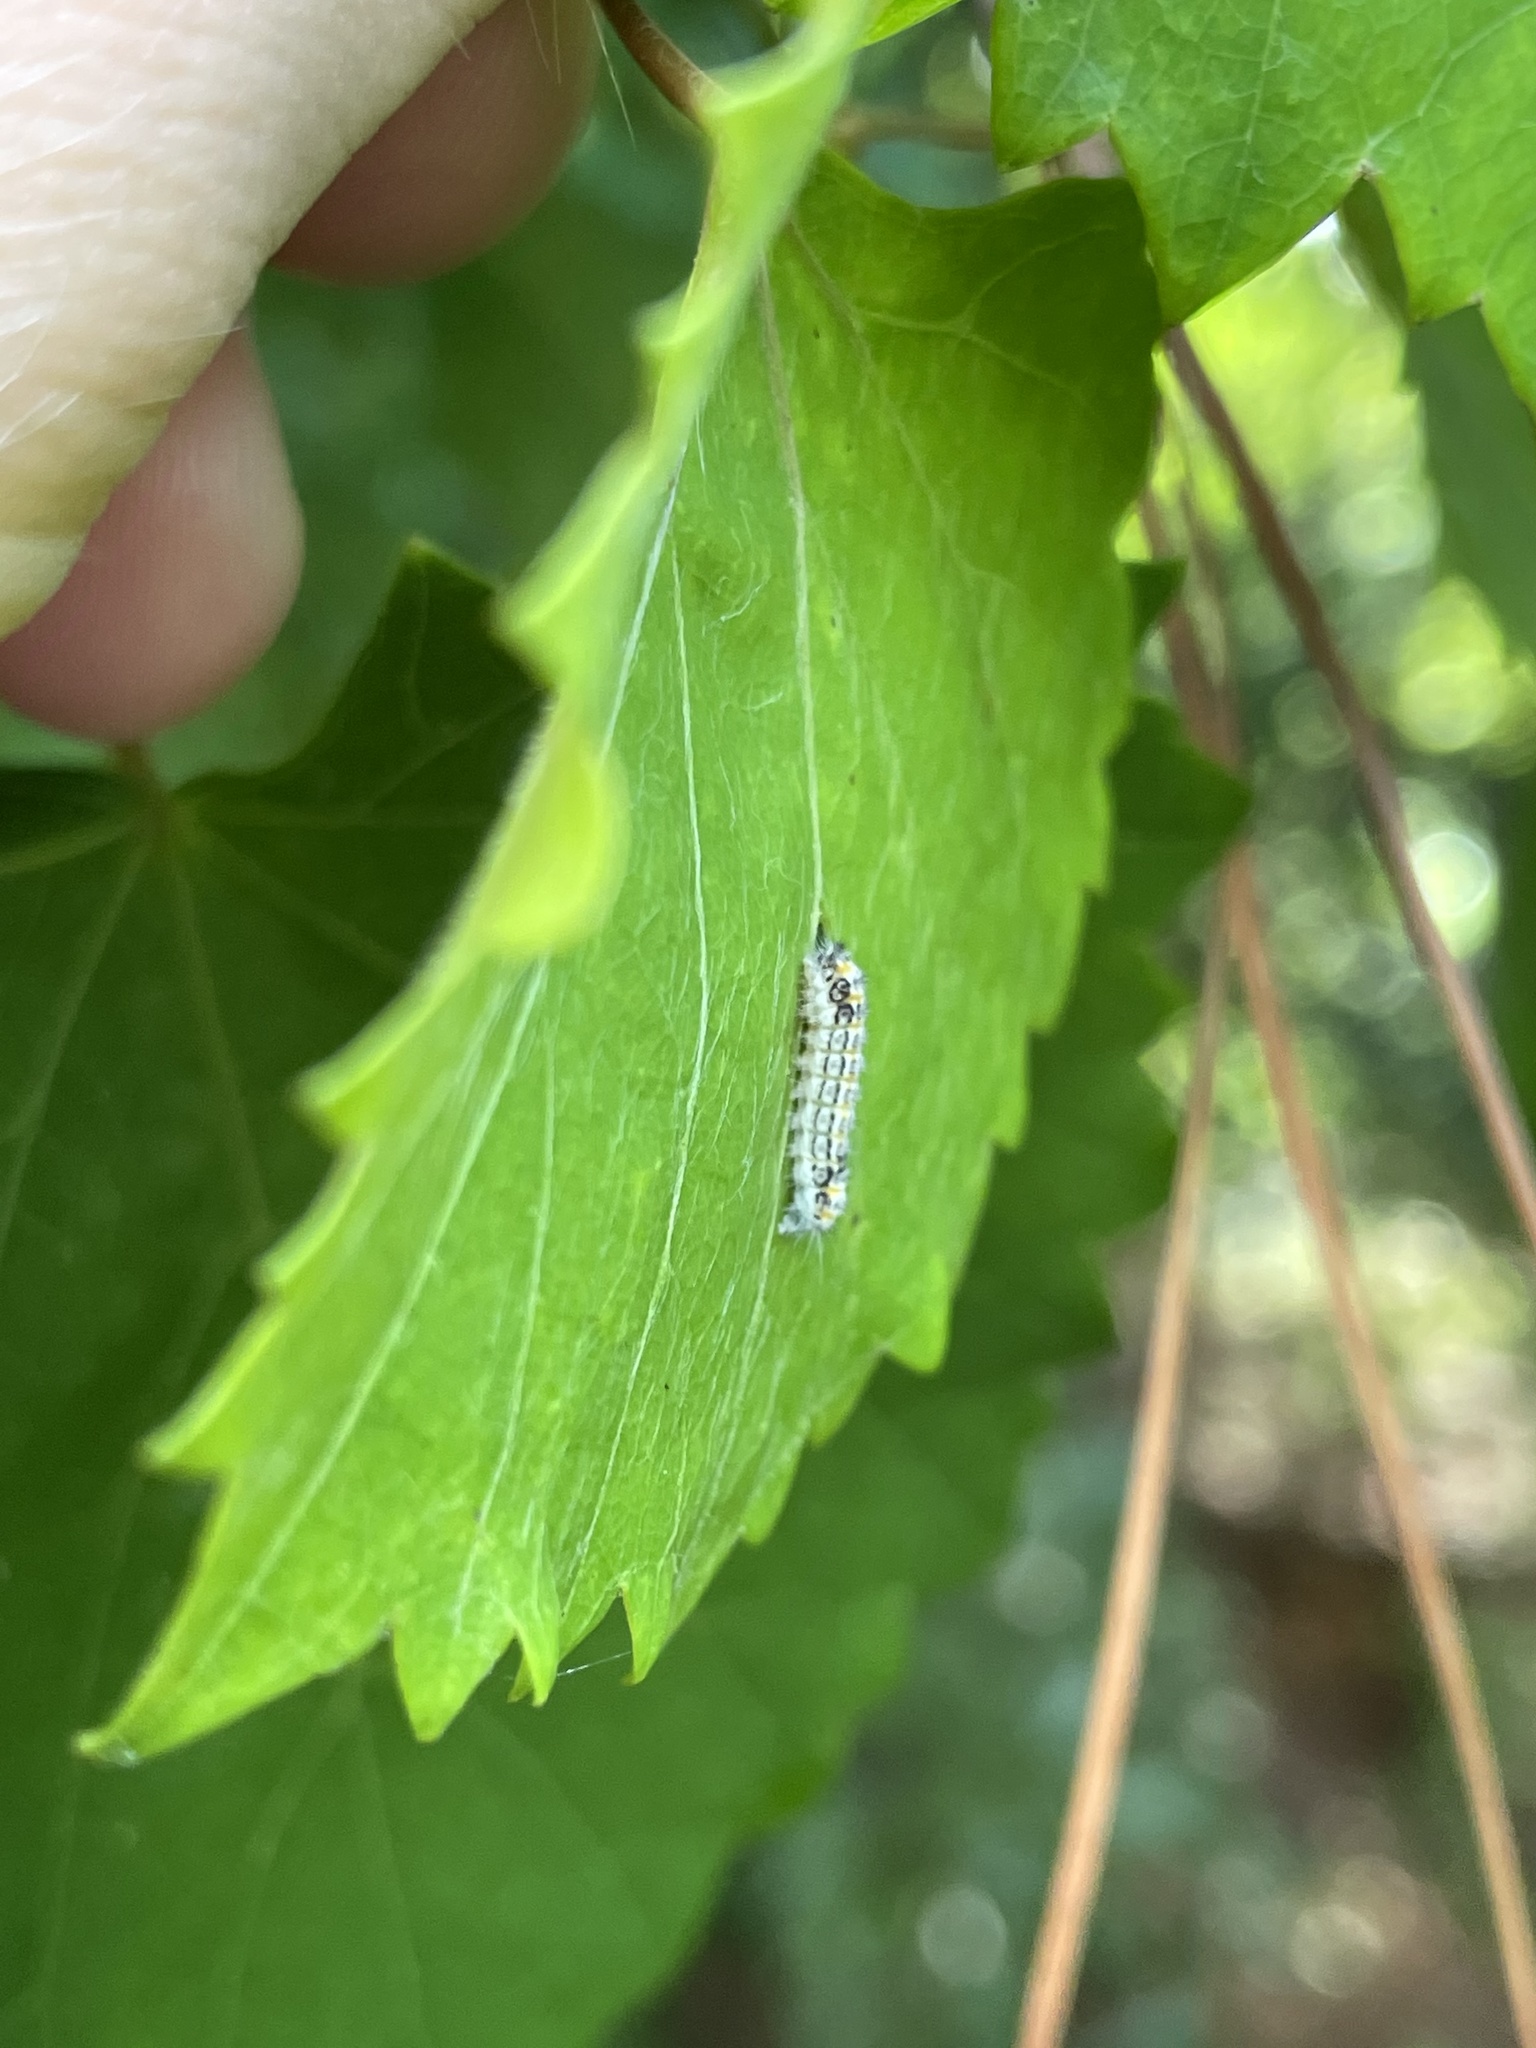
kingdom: Animalia
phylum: Arthropoda
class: Insecta
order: Lepidoptera
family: Zygaenidae
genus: Acoloithus
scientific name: Acoloithus falsarius
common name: Clemens' false skeletonizer
